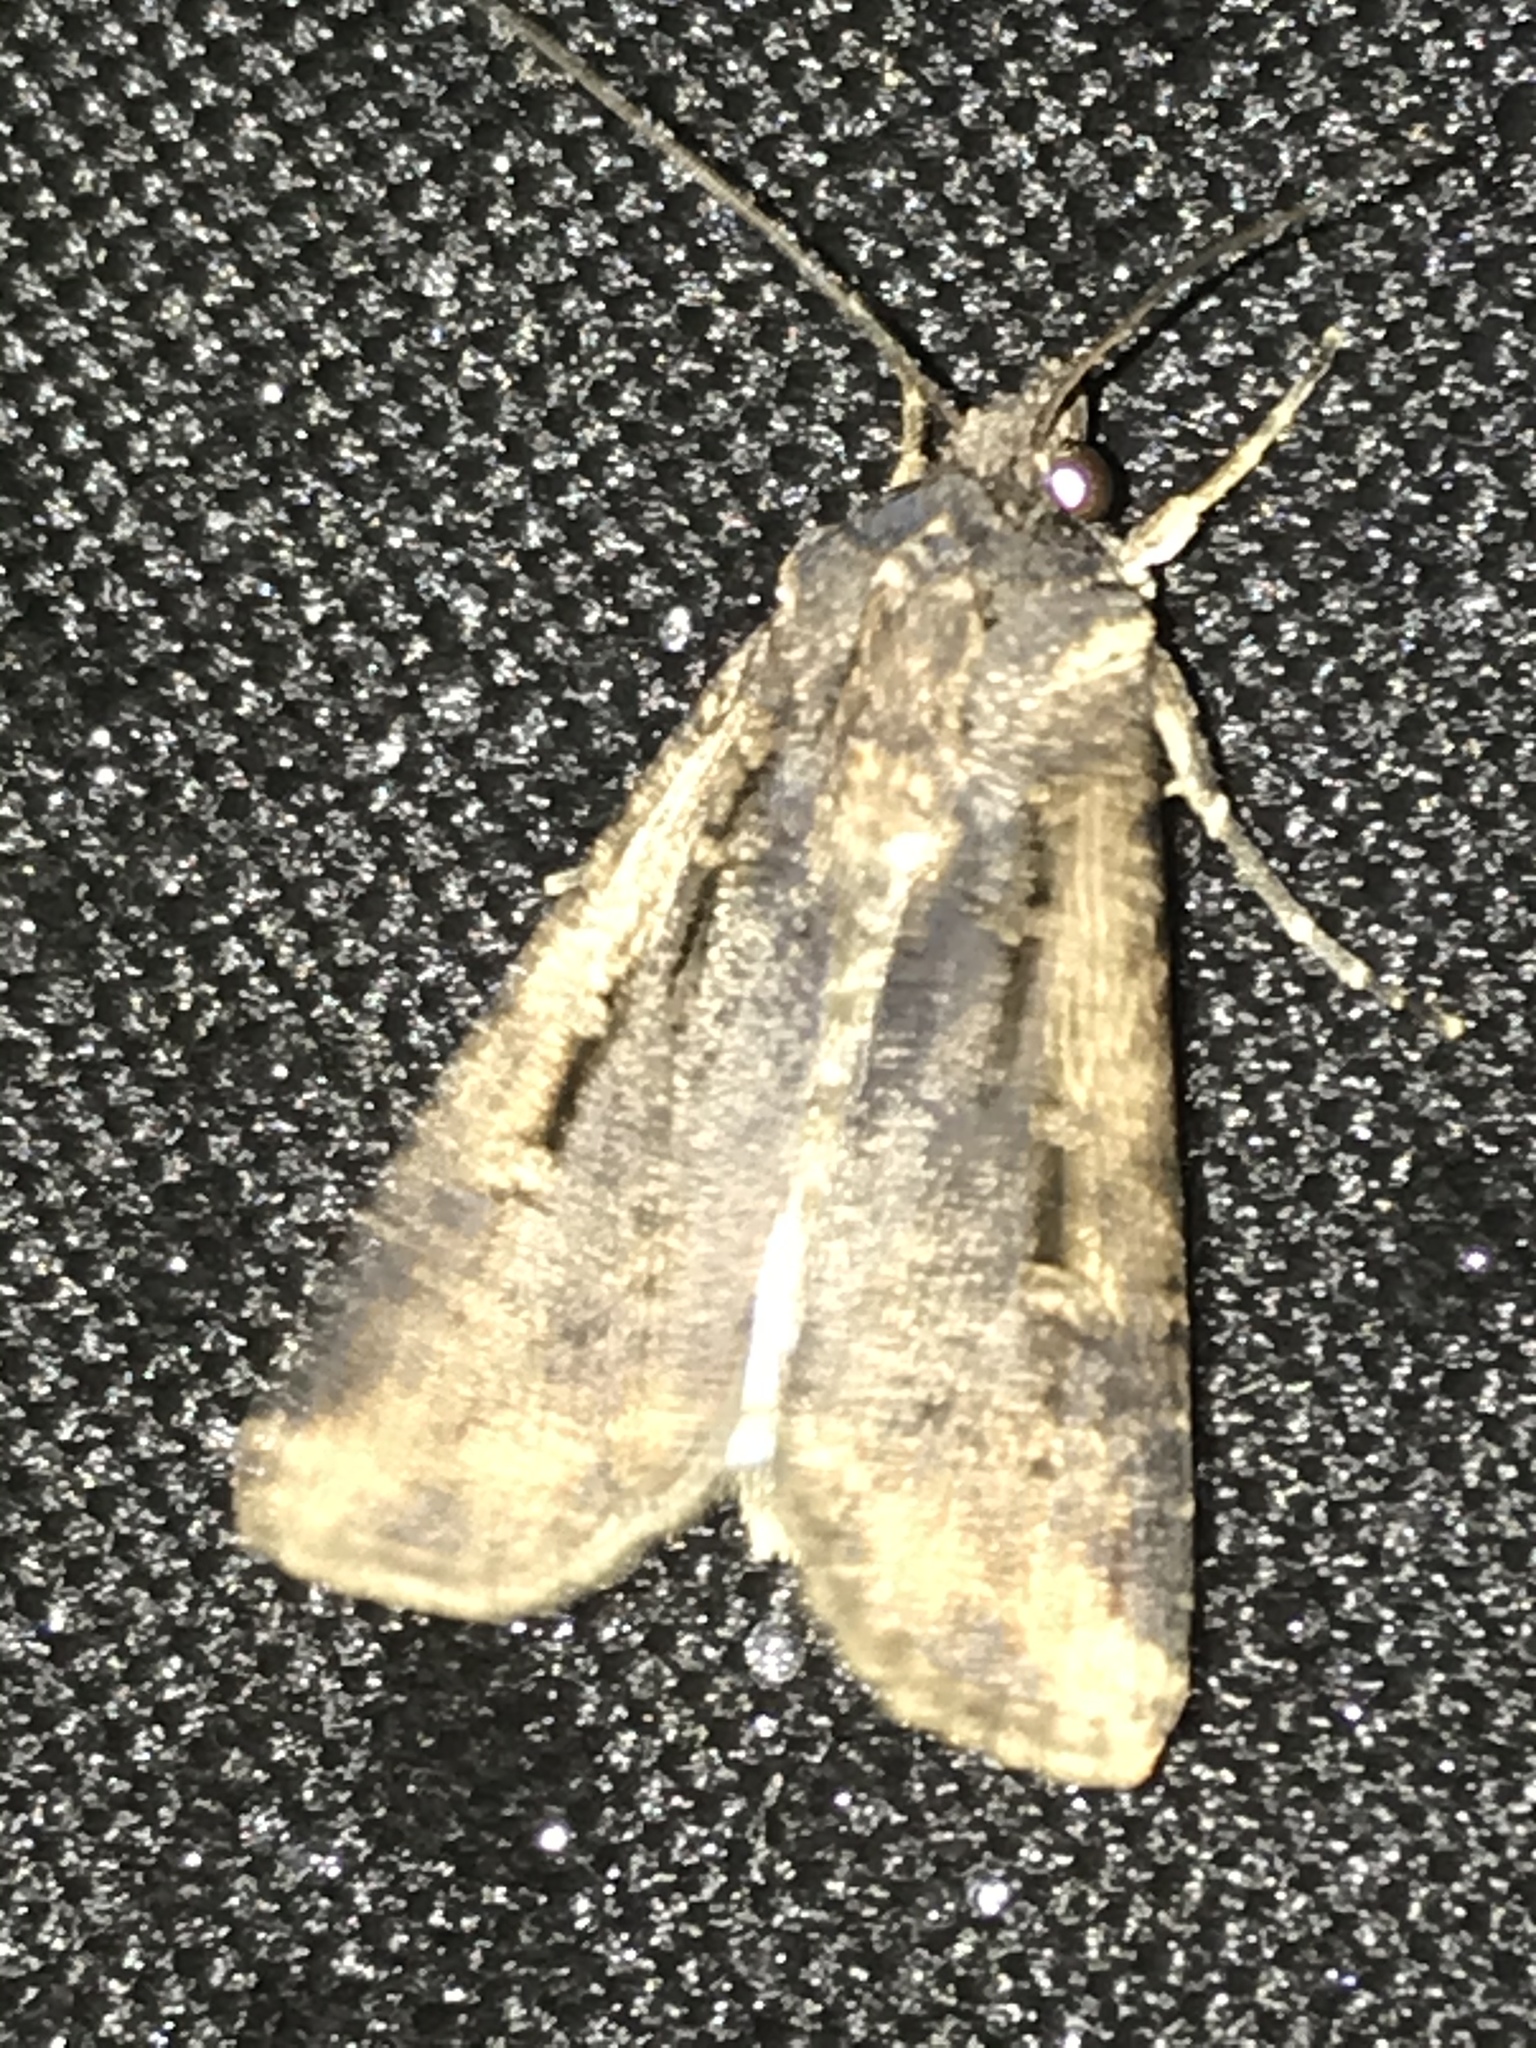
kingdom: Animalia
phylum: Arthropoda
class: Insecta
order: Lepidoptera
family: Noctuidae
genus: Feltia
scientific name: Feltia subterranea
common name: Granulate cutworm
